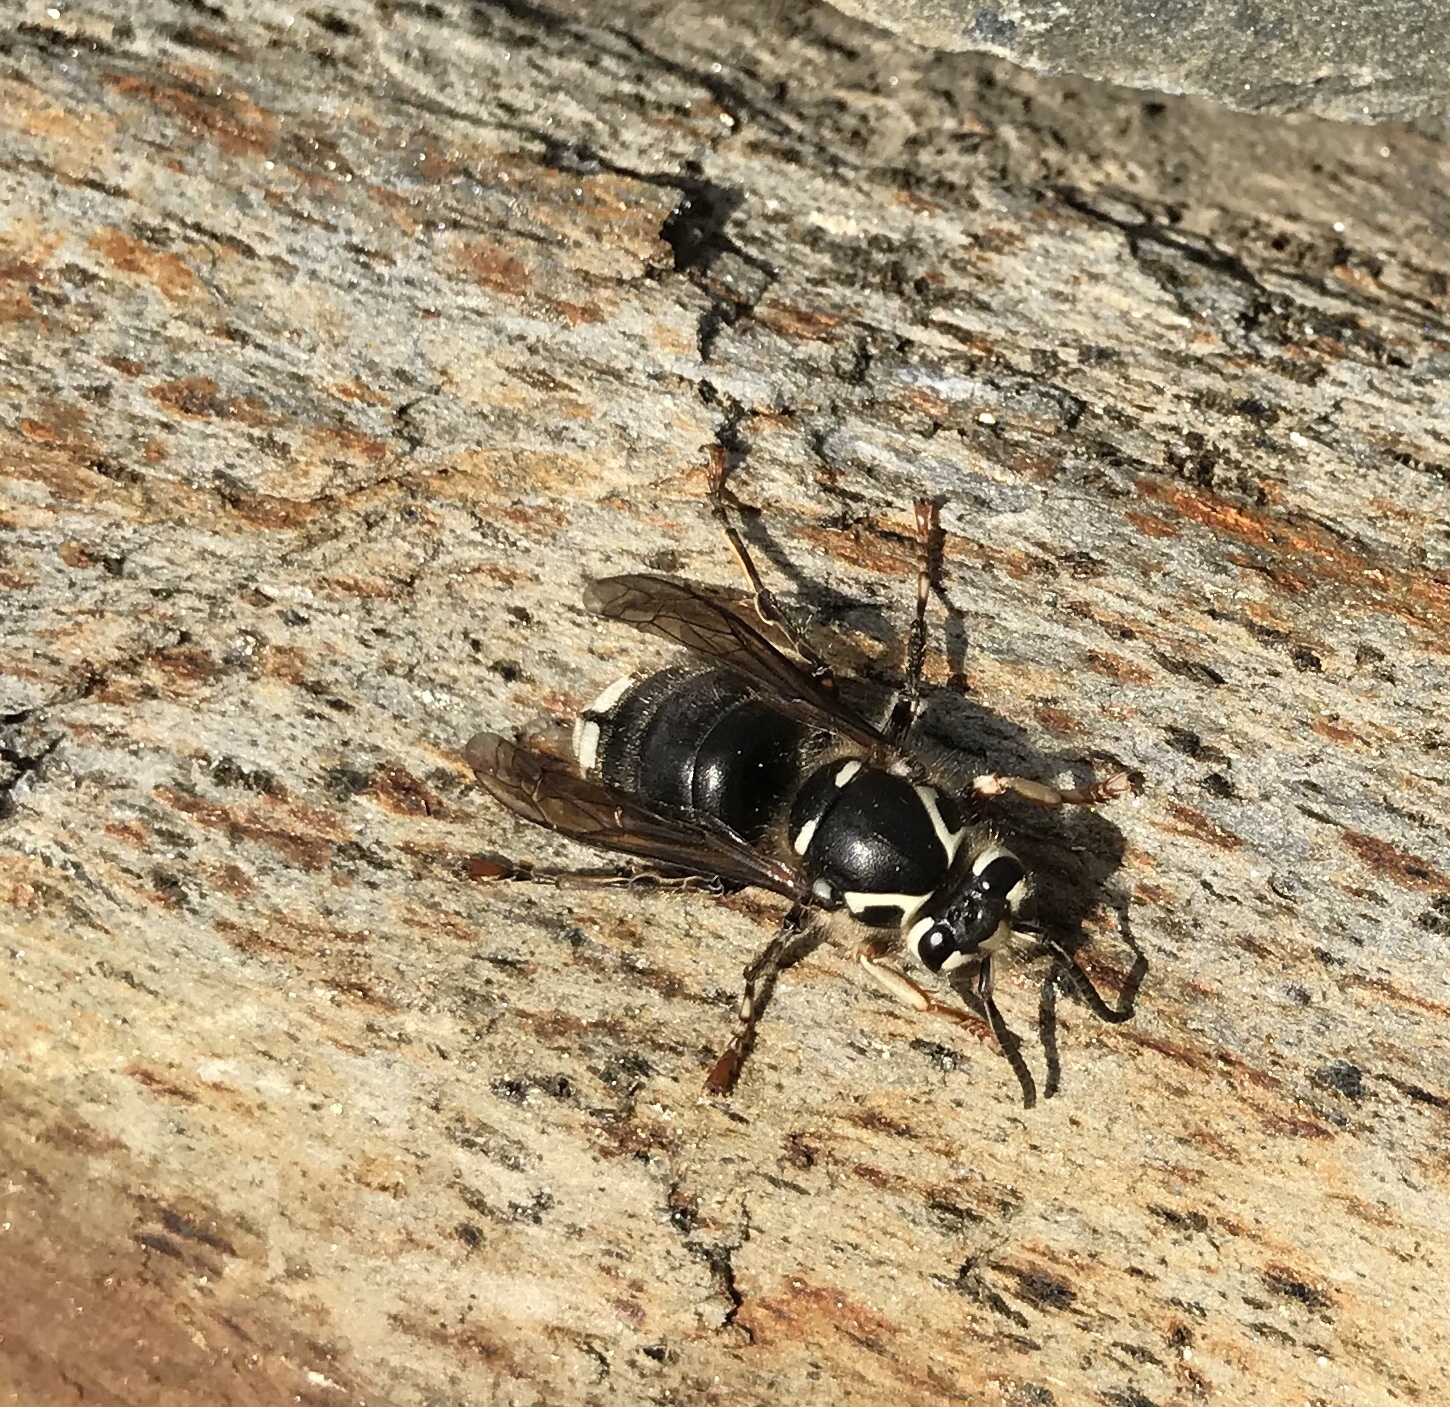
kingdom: Animalia
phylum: Arthropoda
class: Insecta
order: Hymenoptera
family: Vespidae
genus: Dolichovespula
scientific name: Dolichovespula maculata
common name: Bald-faced hornet
